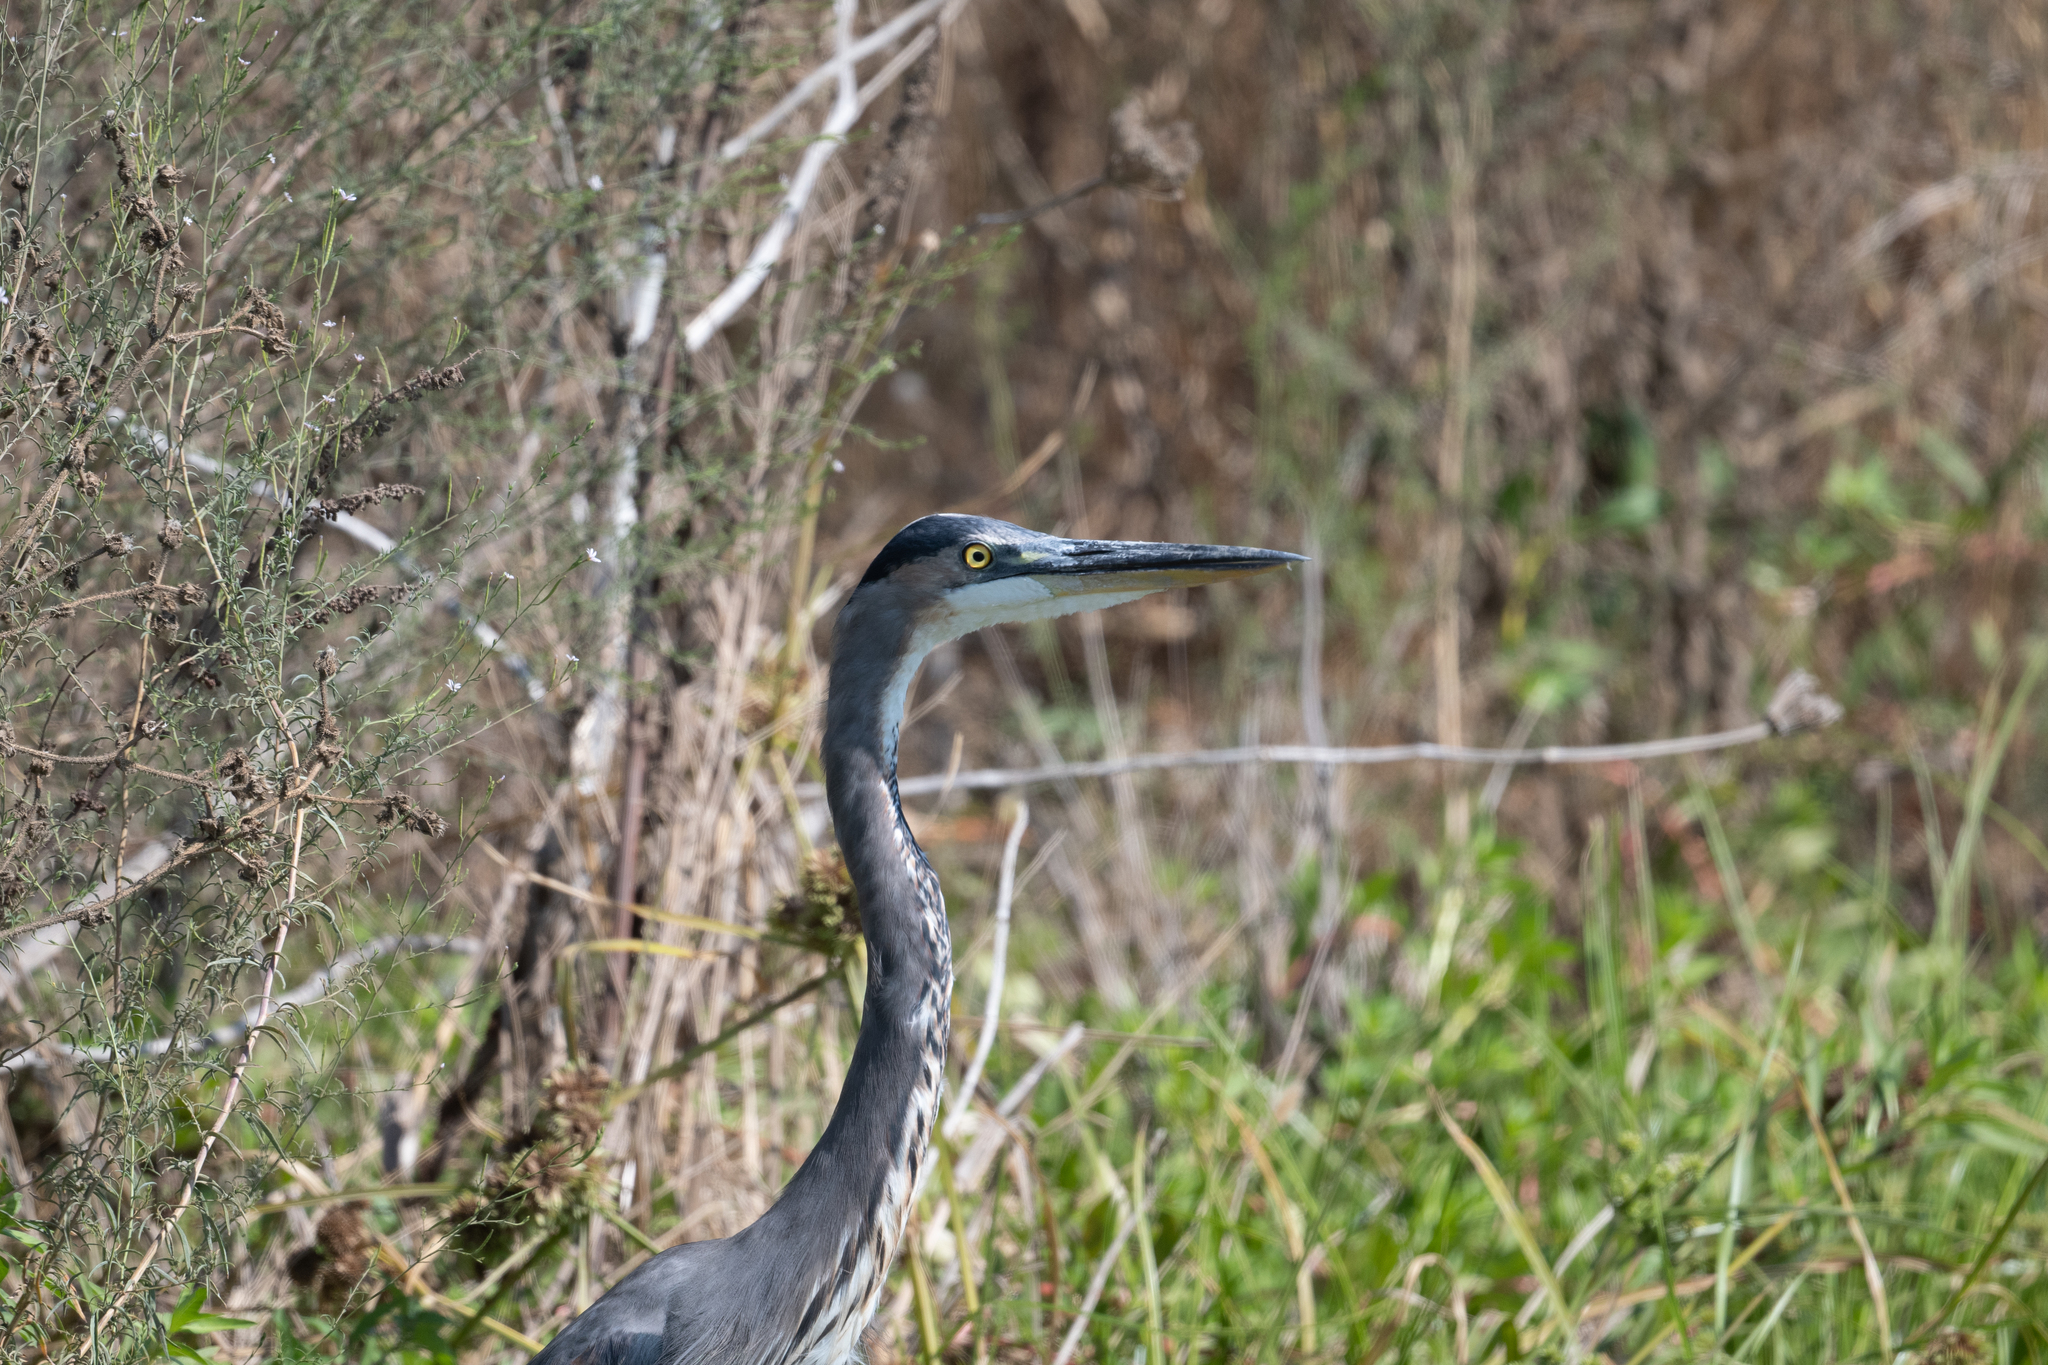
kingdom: Animalia
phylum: Chordata
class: Aves
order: Pelecaniformes
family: Ardeidae
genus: Ardea
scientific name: Ardea herodias
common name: Great blue heron
